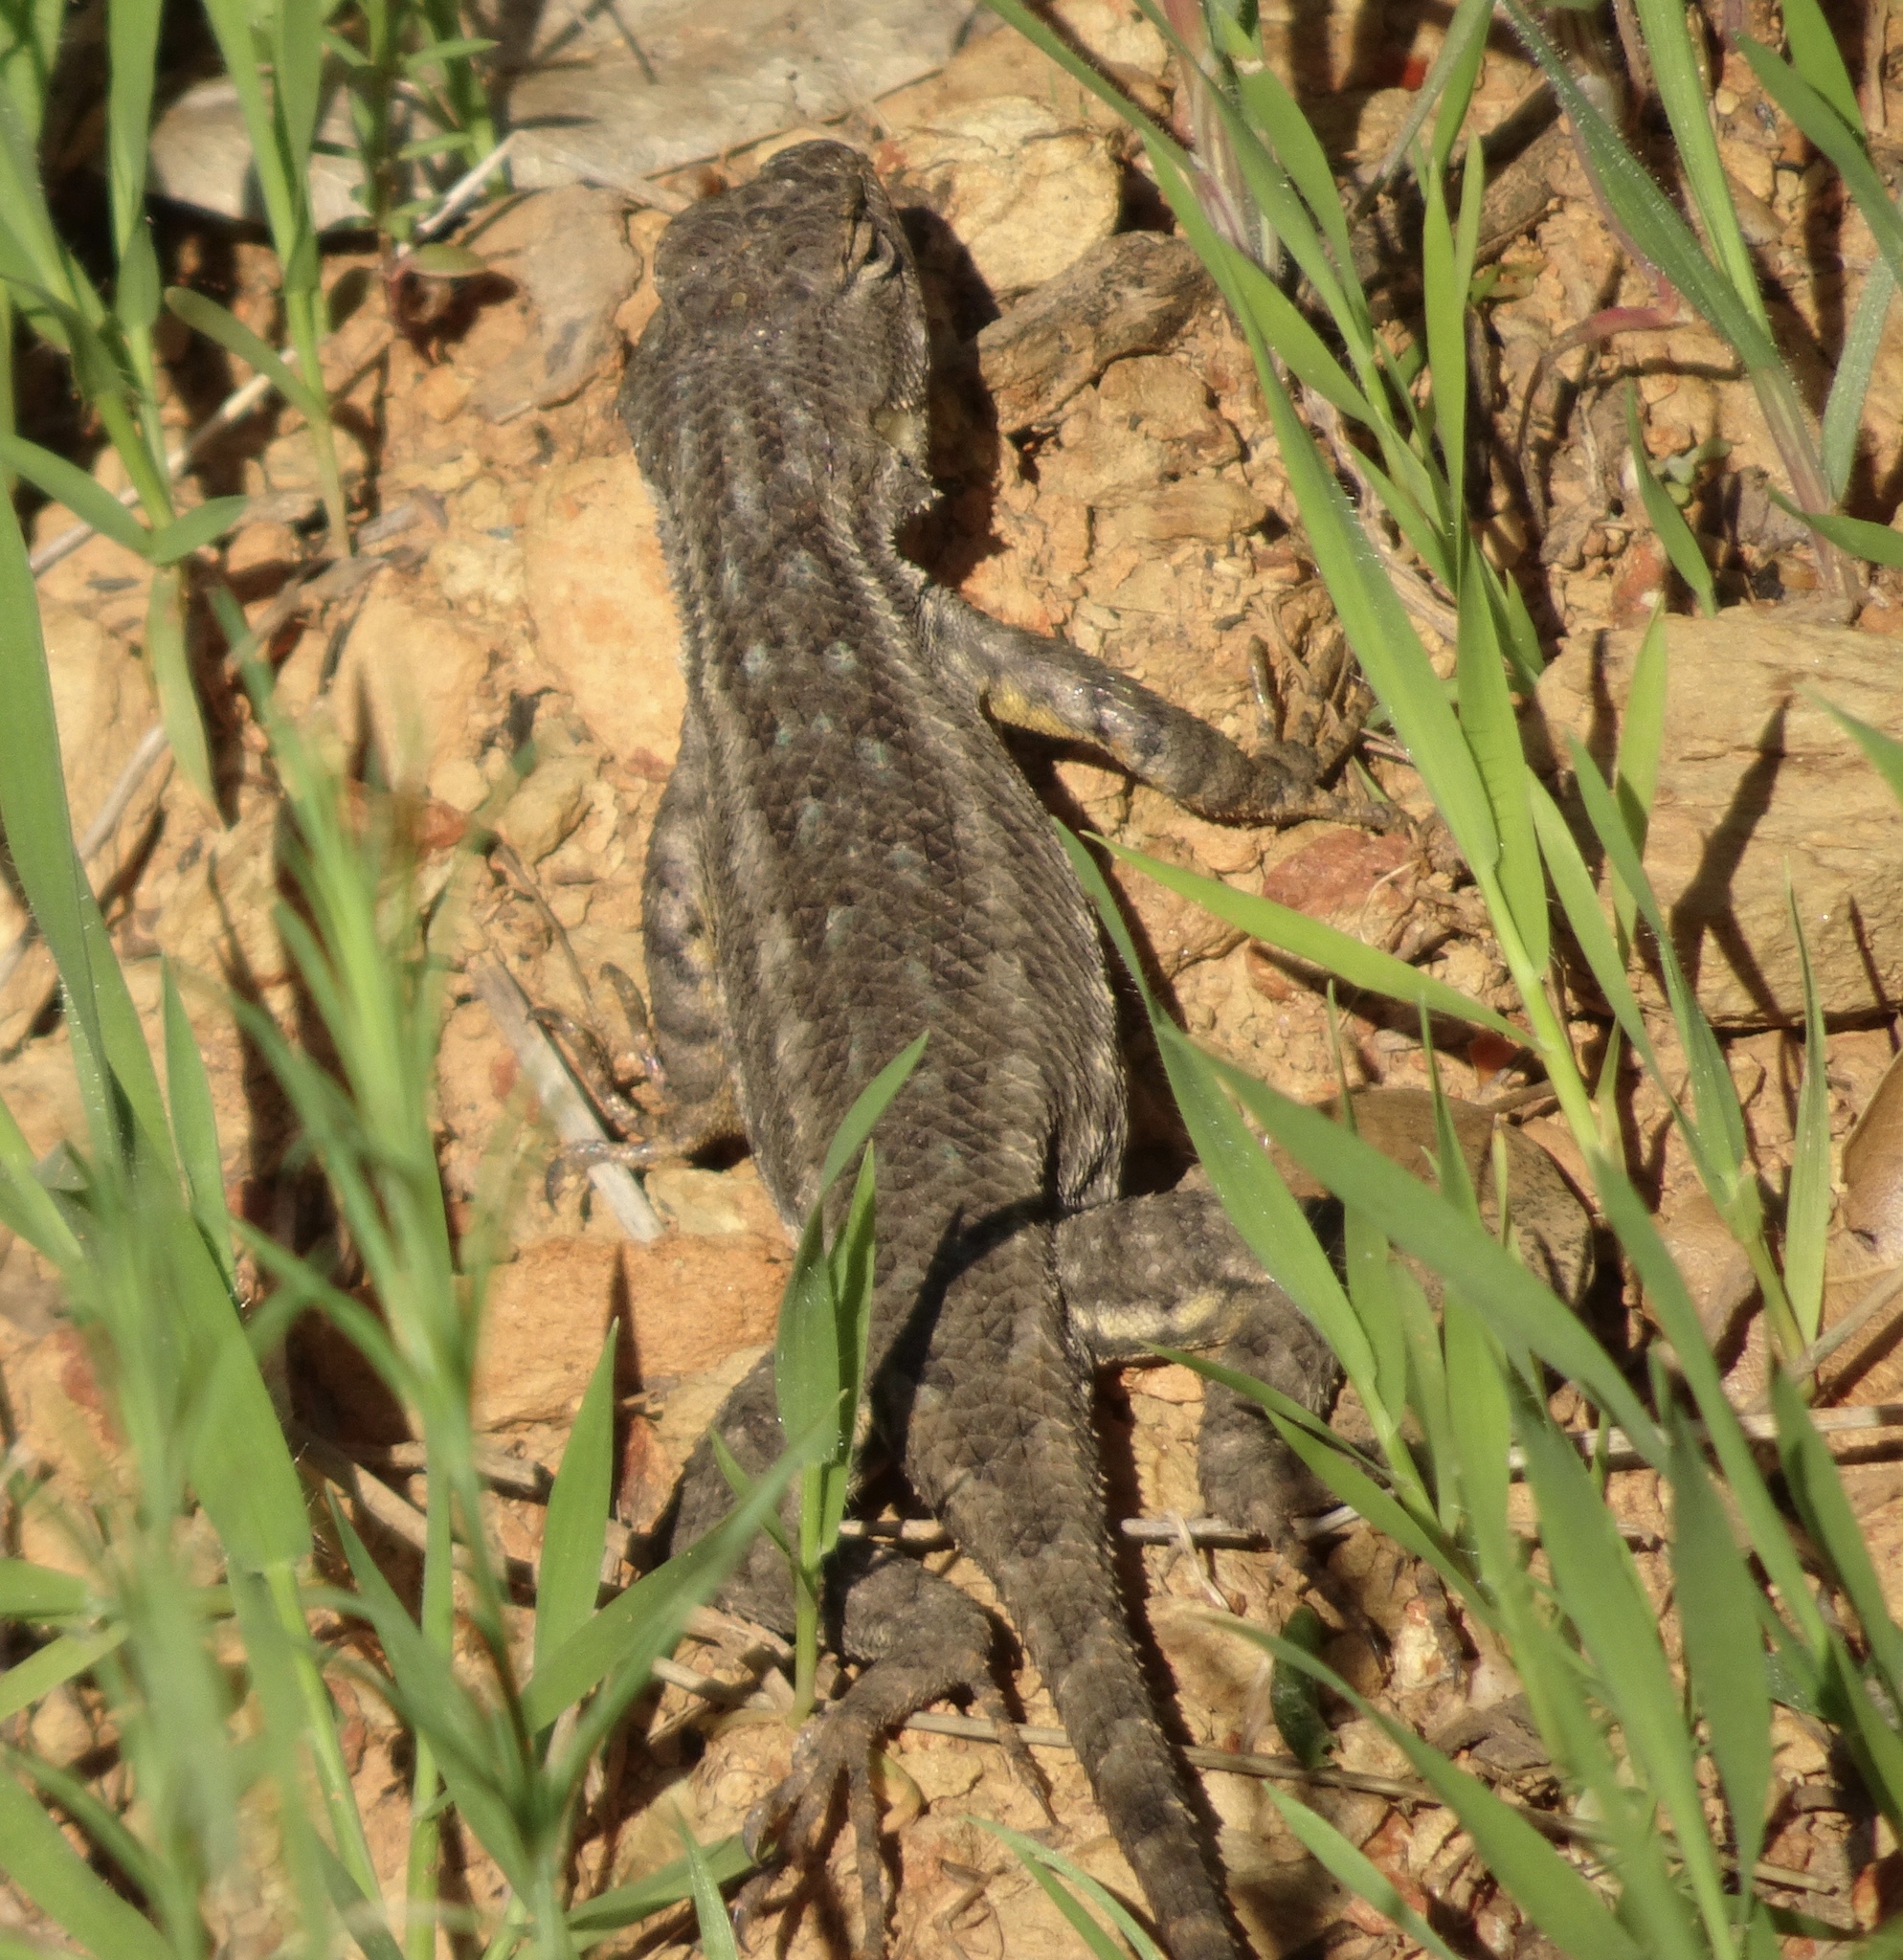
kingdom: Animalia
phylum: Chordata
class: Squamata
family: Phrynosomatidae
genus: Sceloporus
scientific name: Sceloporus occidentalis
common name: Western fence lizard
